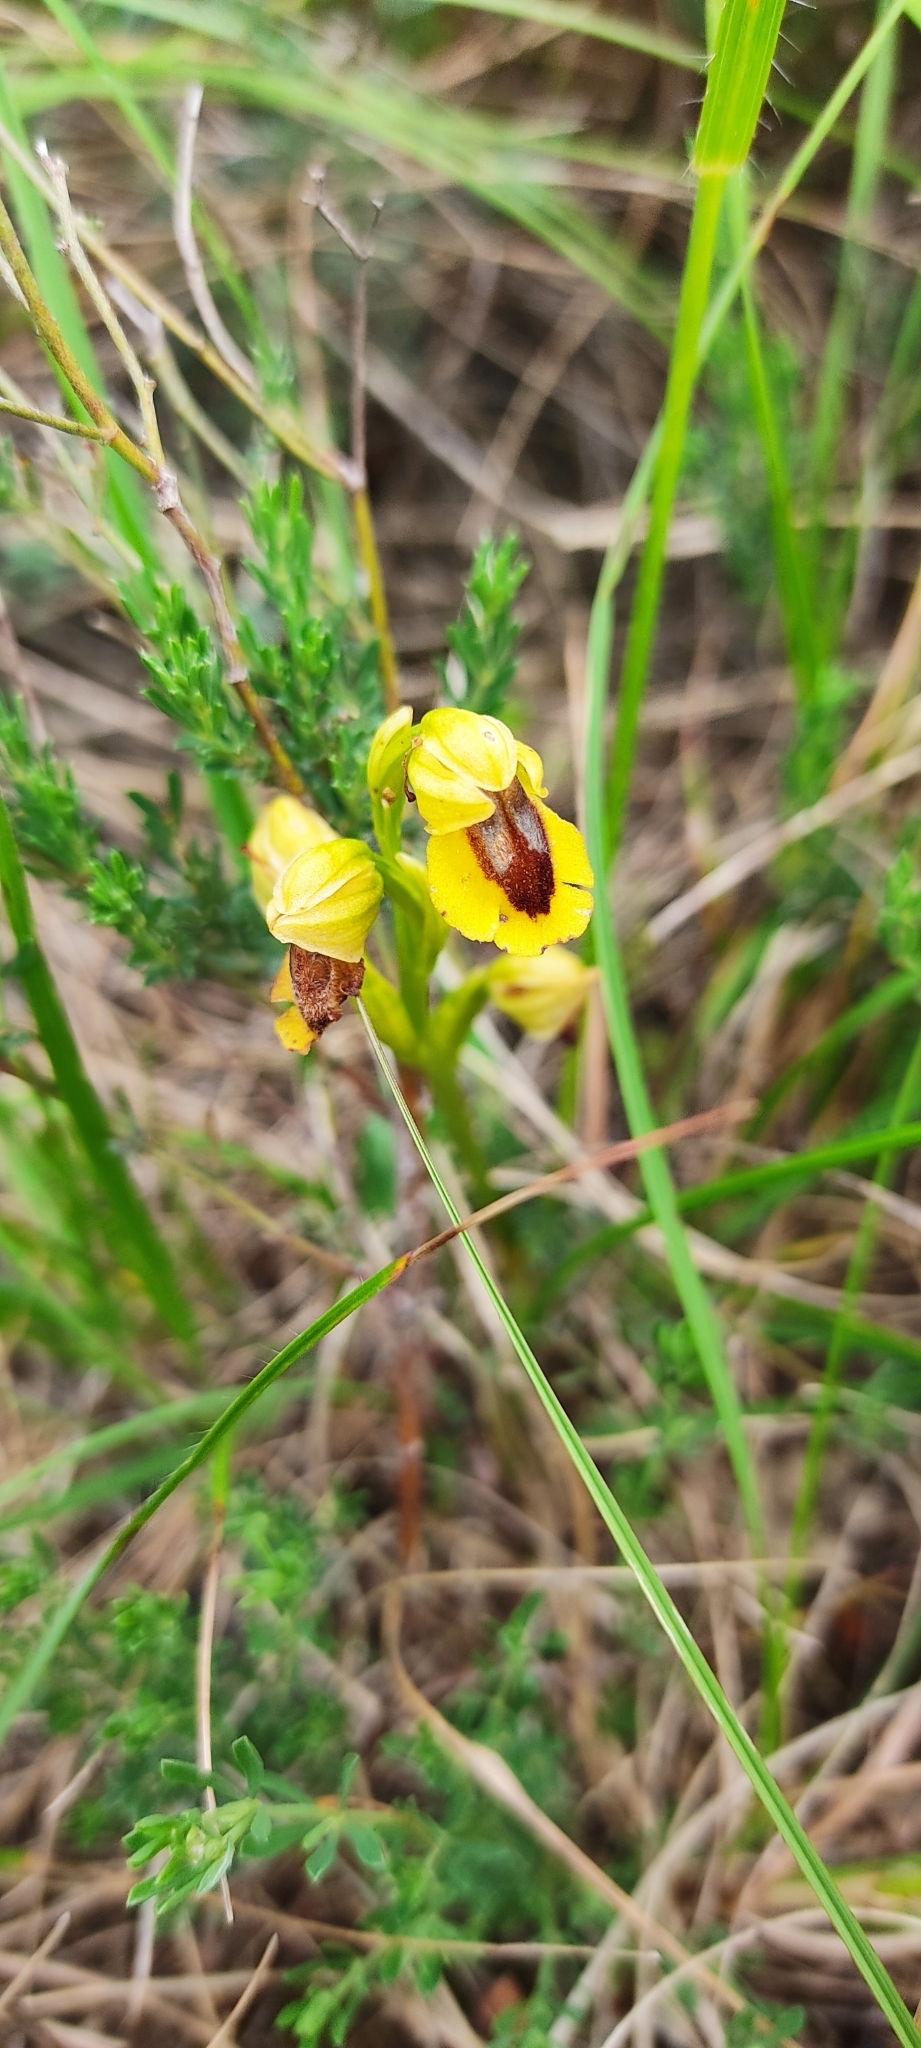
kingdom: Plantae
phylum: Tracheophyta
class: Liliopsida
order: Asparagales
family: Orchidaceae
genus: Ophrys
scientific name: Ophrys lutea
